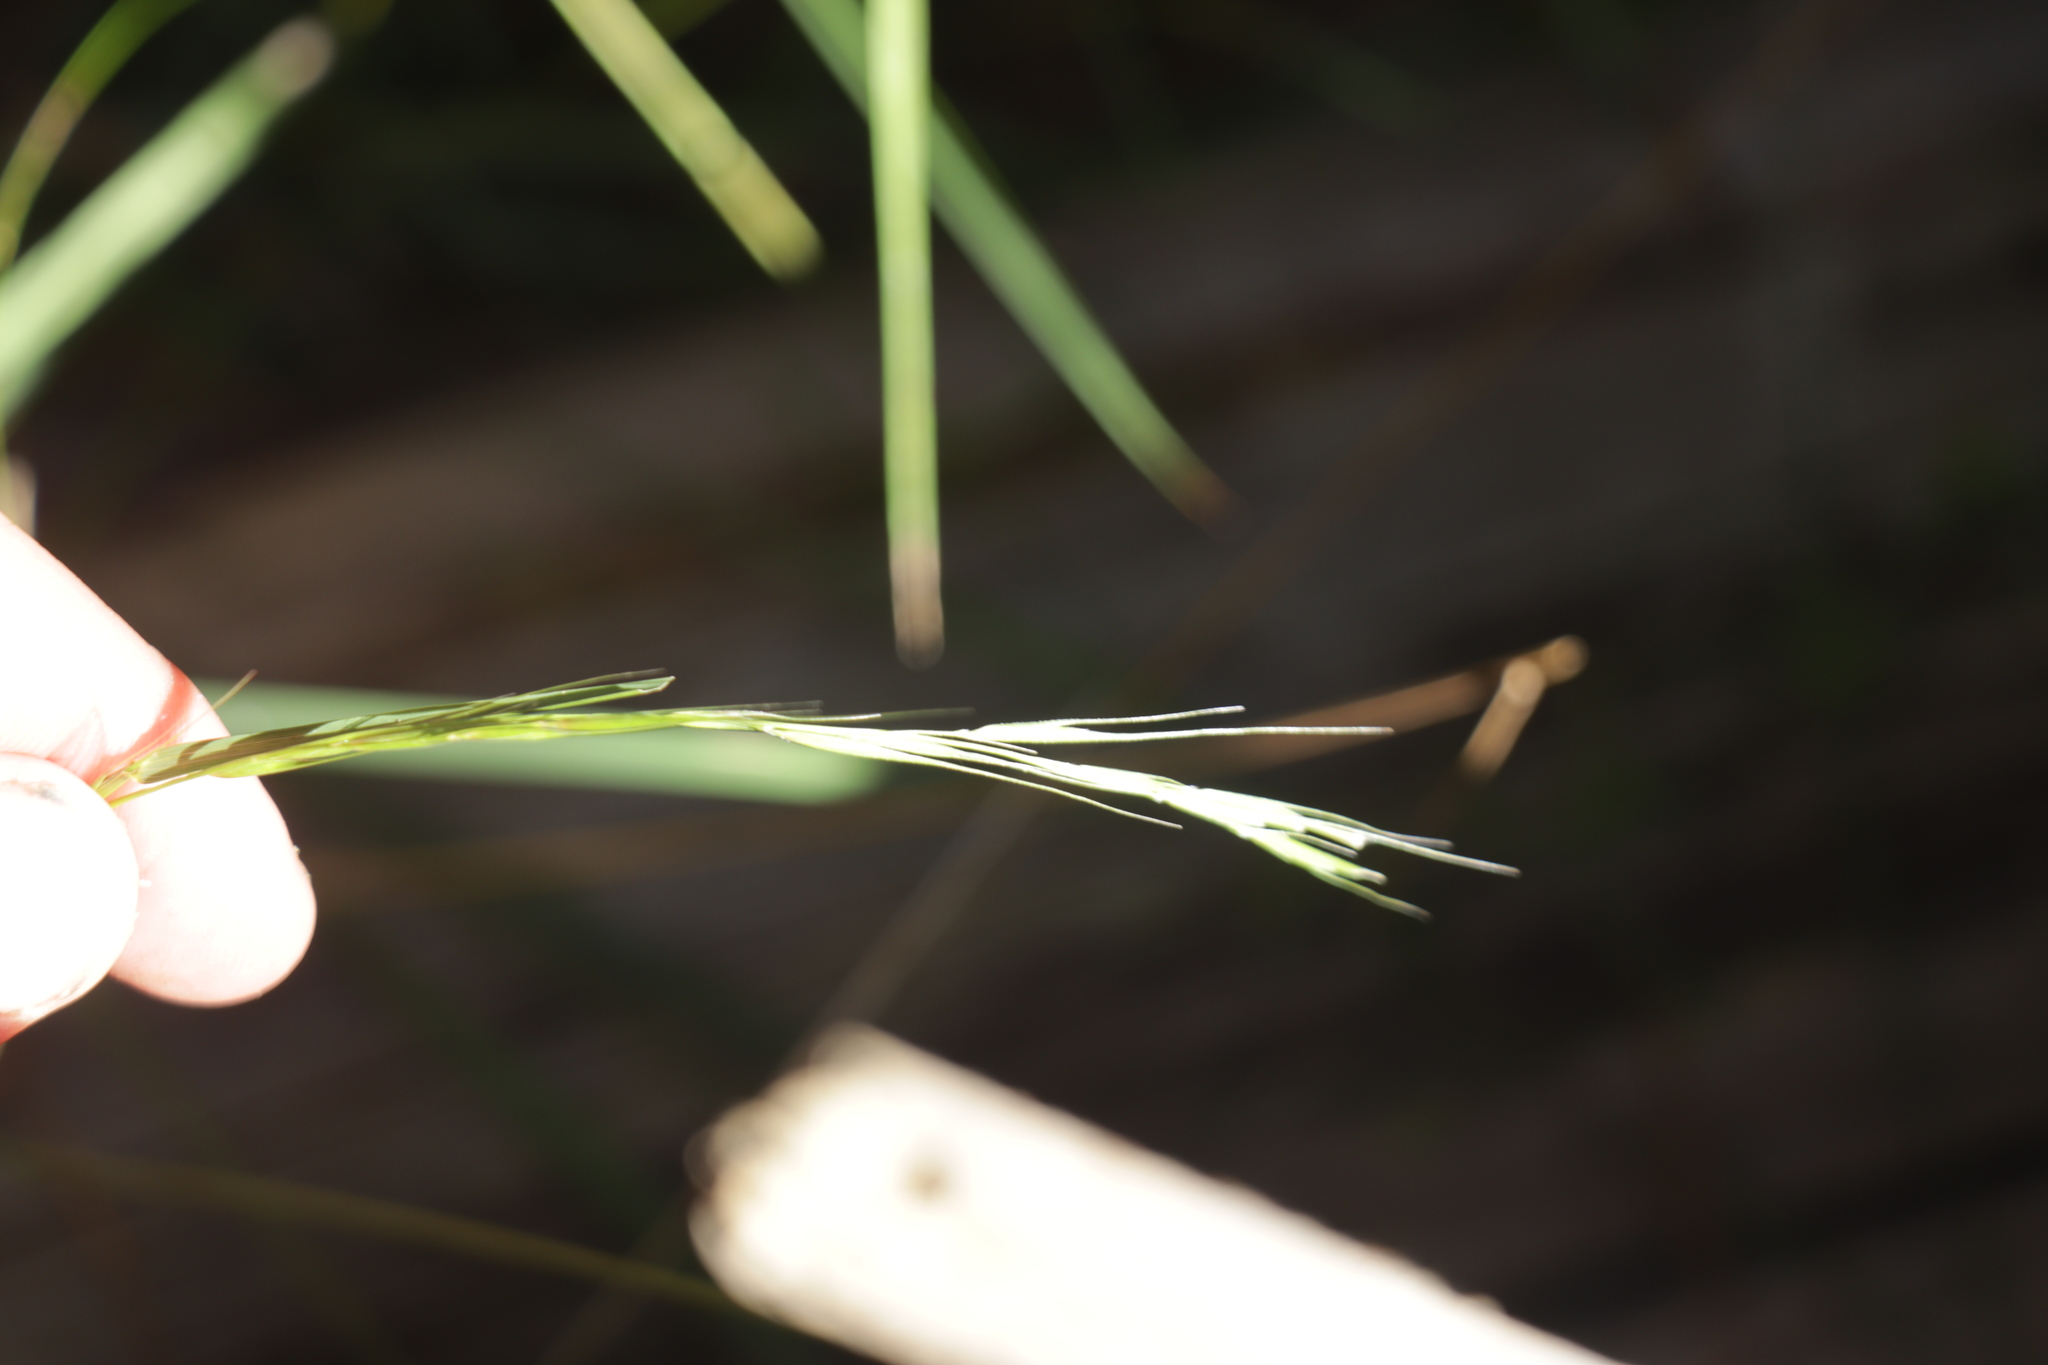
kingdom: Plantae
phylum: Tracheophyta
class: Liliopsida
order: Poales
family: Poaceae
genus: Microlaena
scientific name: Microlaena stipoides
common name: Meadow ricegrass
